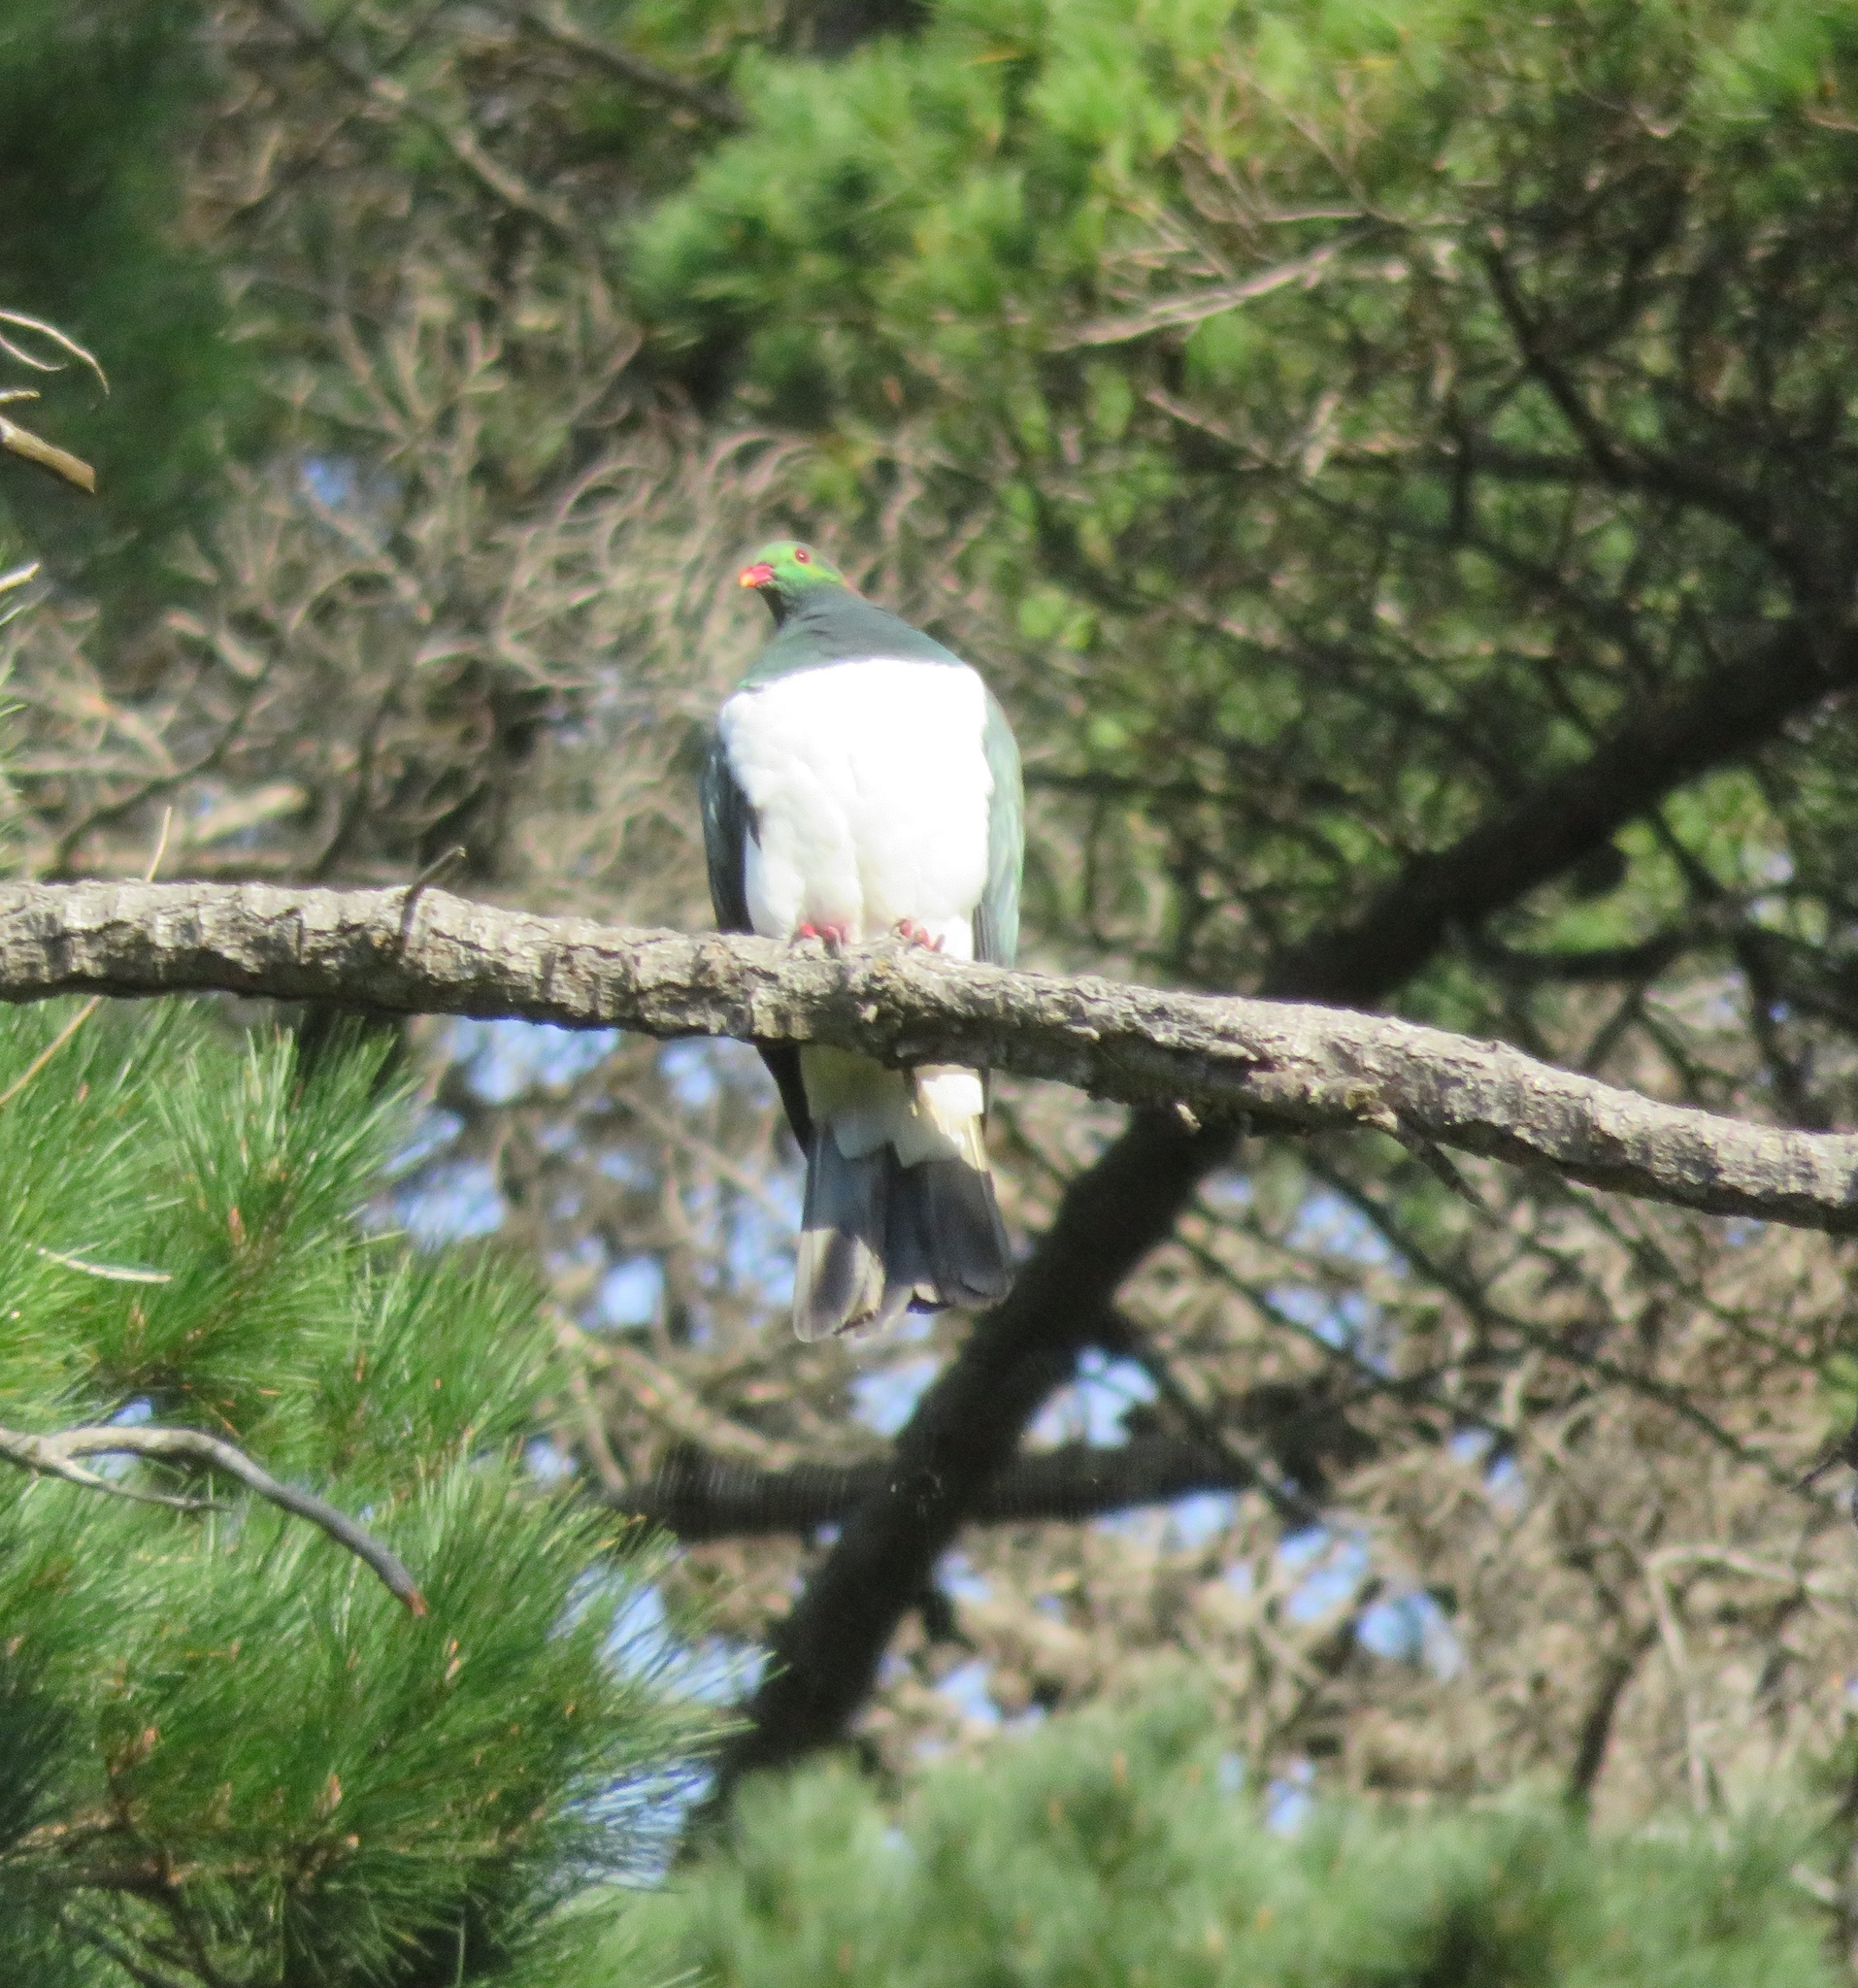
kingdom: Animalia
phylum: Chordata
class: Aves
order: Columbiformes
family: Columbidae
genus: Hemiphaga
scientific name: Hemiphaga novaeseelandiae
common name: New zealand pigeon
